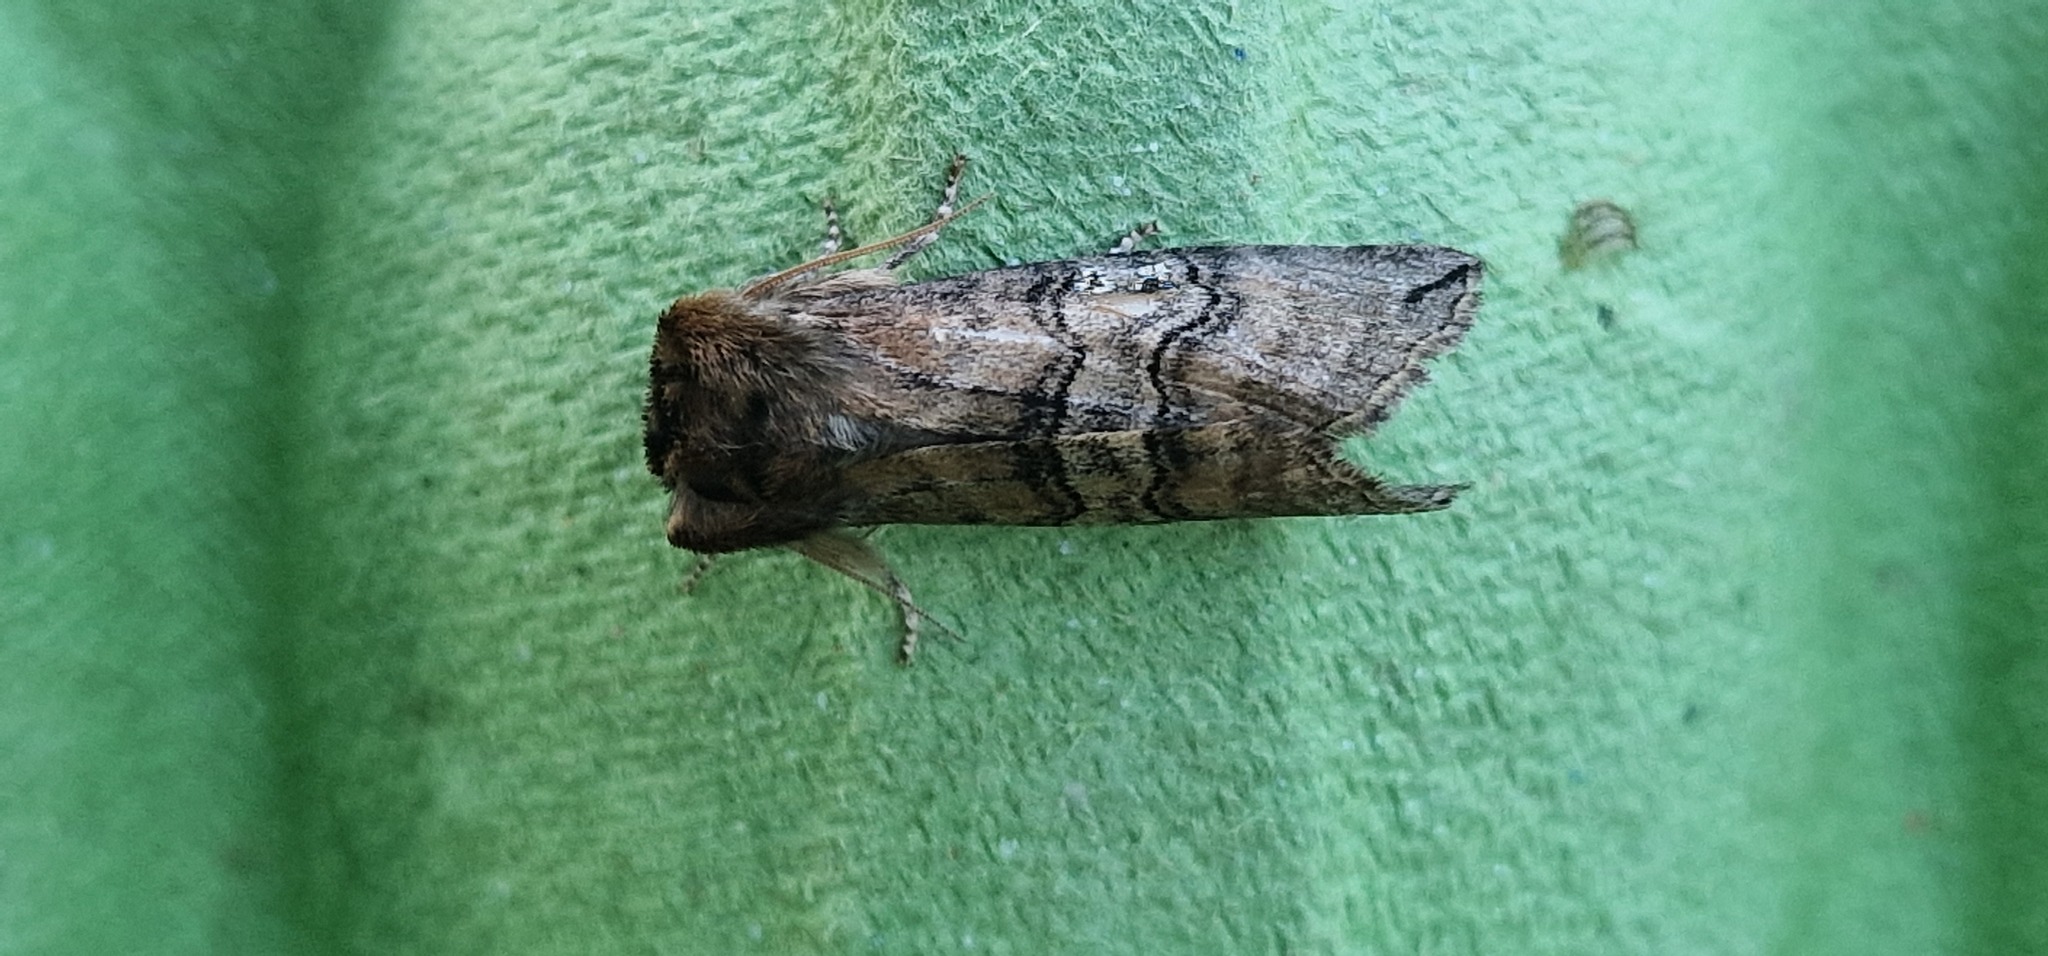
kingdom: Animalia
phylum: Arthropoda
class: Insecta
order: Lepidoptera
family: Drepanidae
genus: Tethea
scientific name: Tethea ocularis
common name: Figure of eighty
